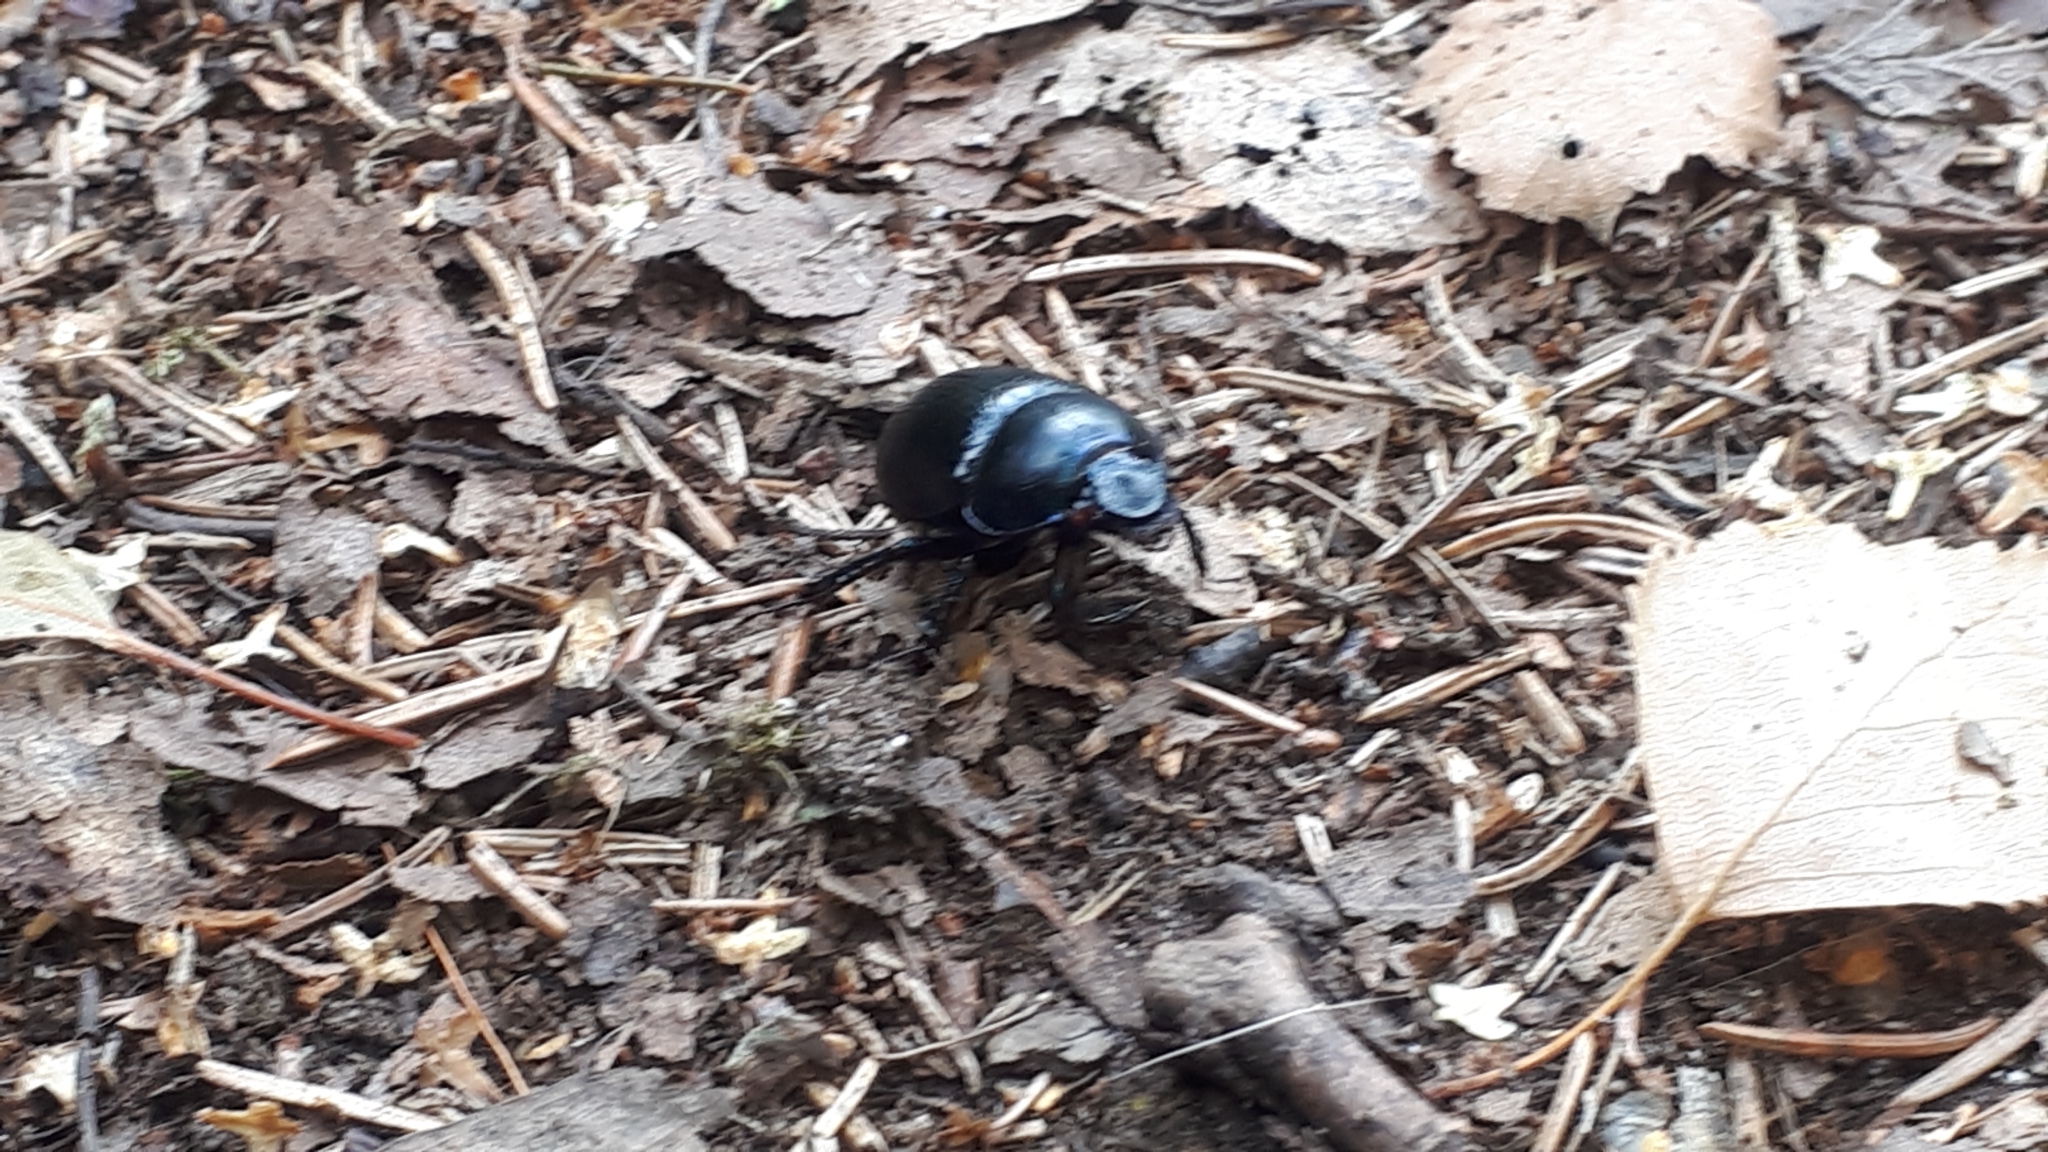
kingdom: Animalia
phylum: Arthropoda
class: Insecta
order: Coleoptera
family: Geotrupidae
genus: Anoplotrupes
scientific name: Anoplotrupes stercorosus
